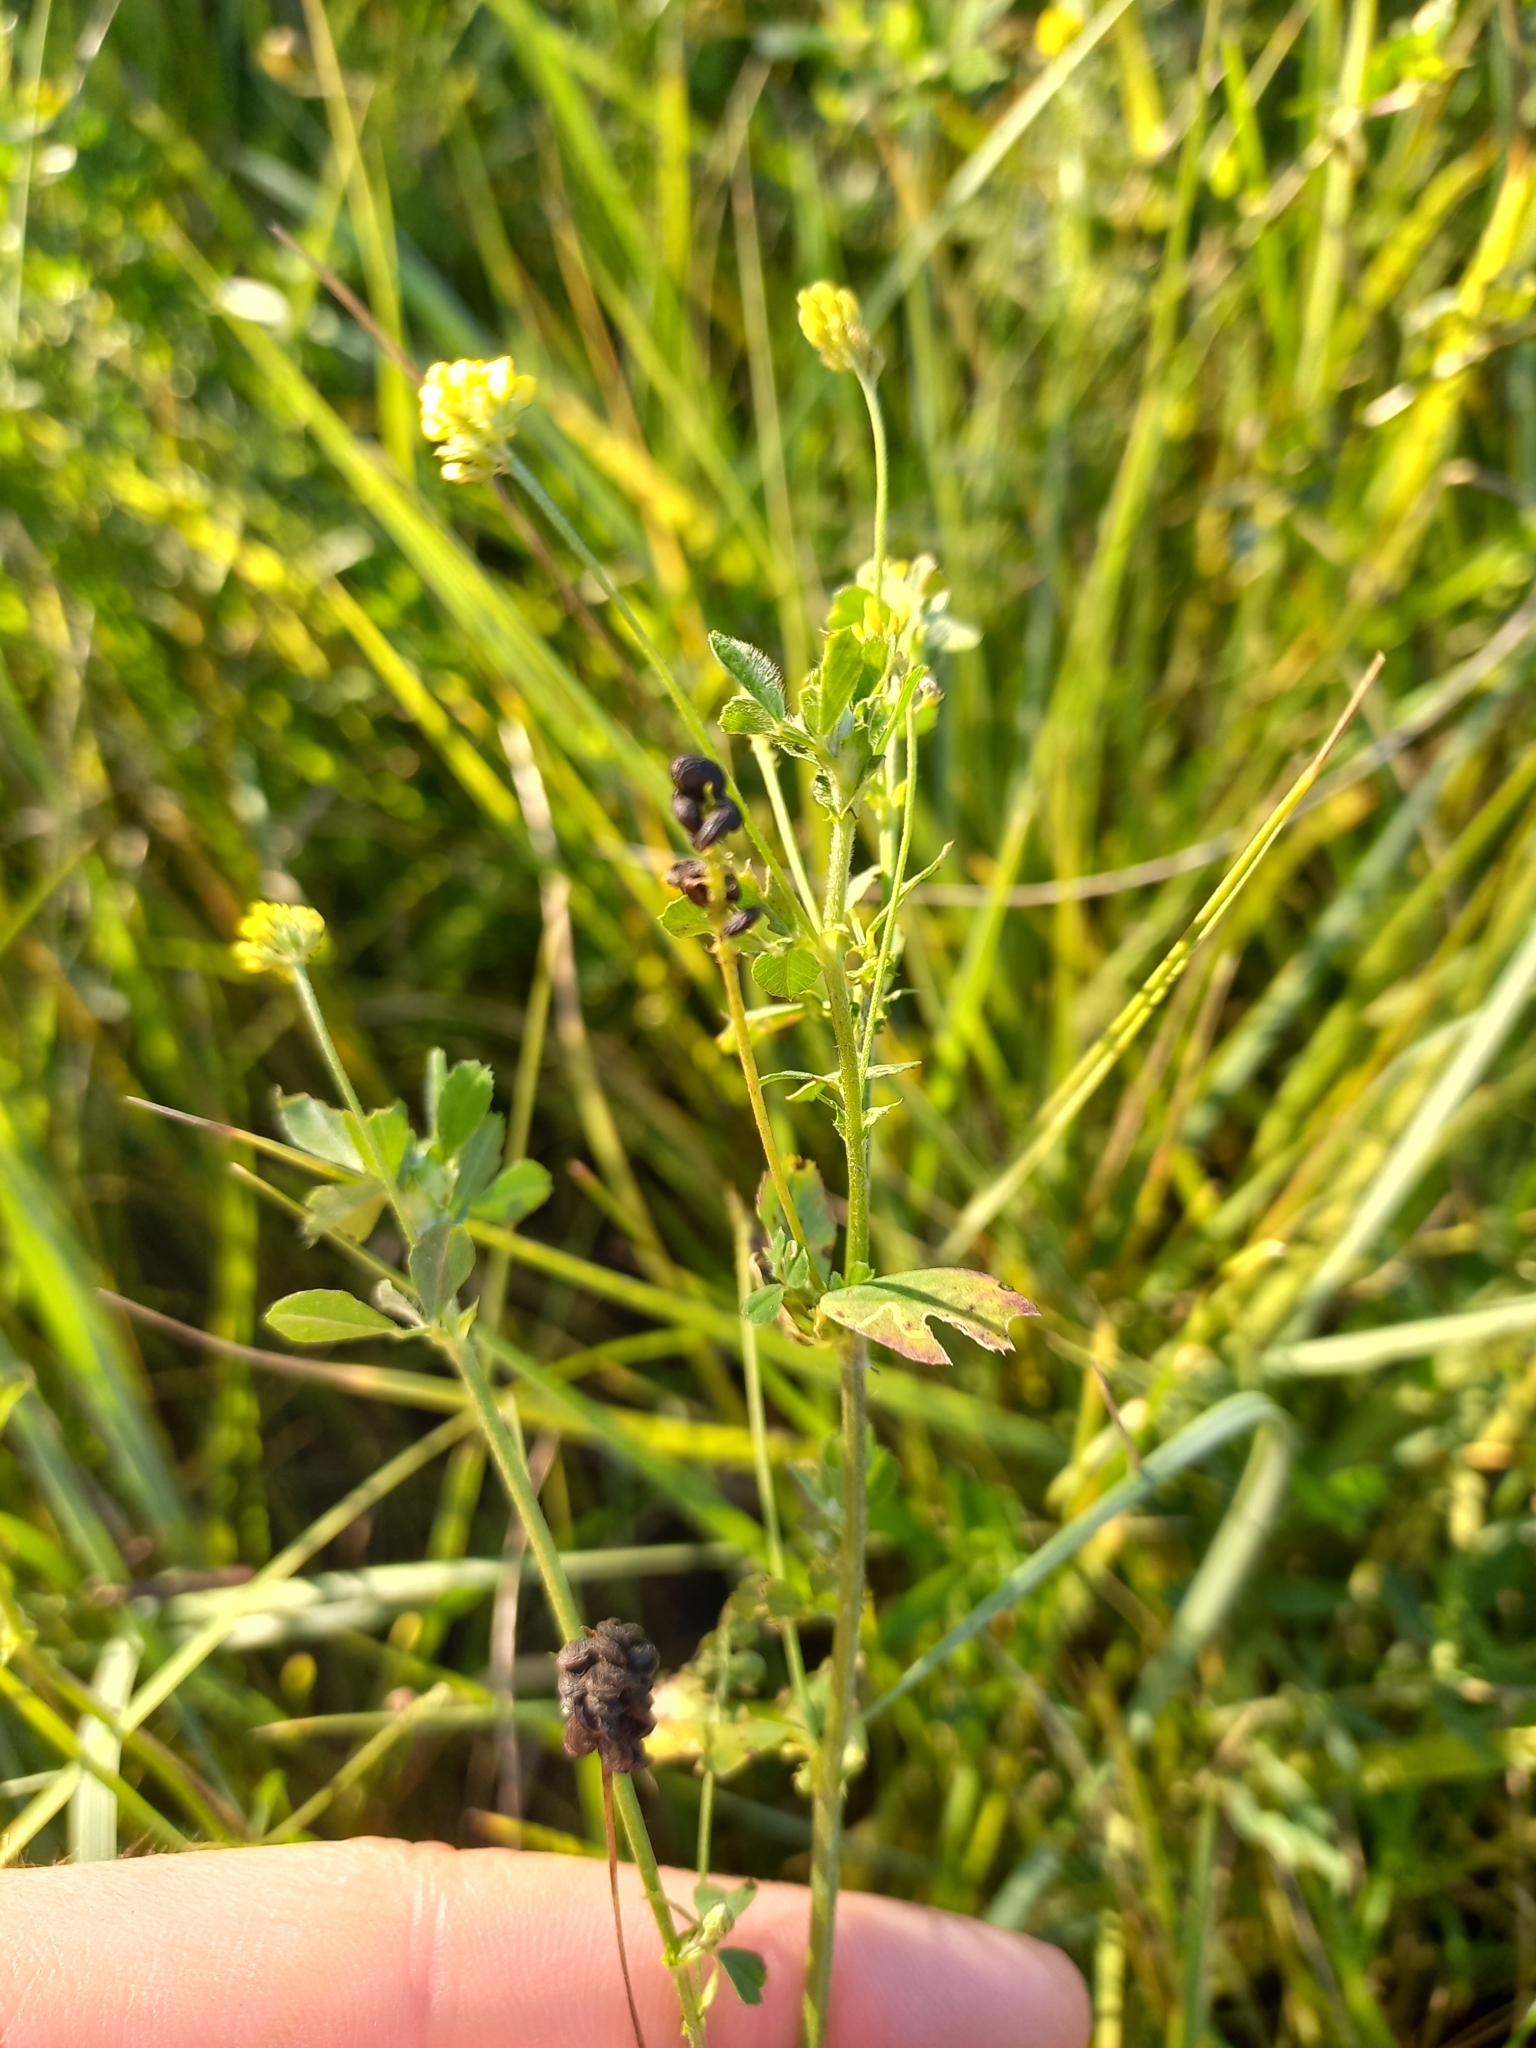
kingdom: Plantae
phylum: Tracheophyta
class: Magnoliopsida
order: Fabales
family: Fabaceae
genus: Medicago
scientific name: Medicago lupulina
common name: Black medick
